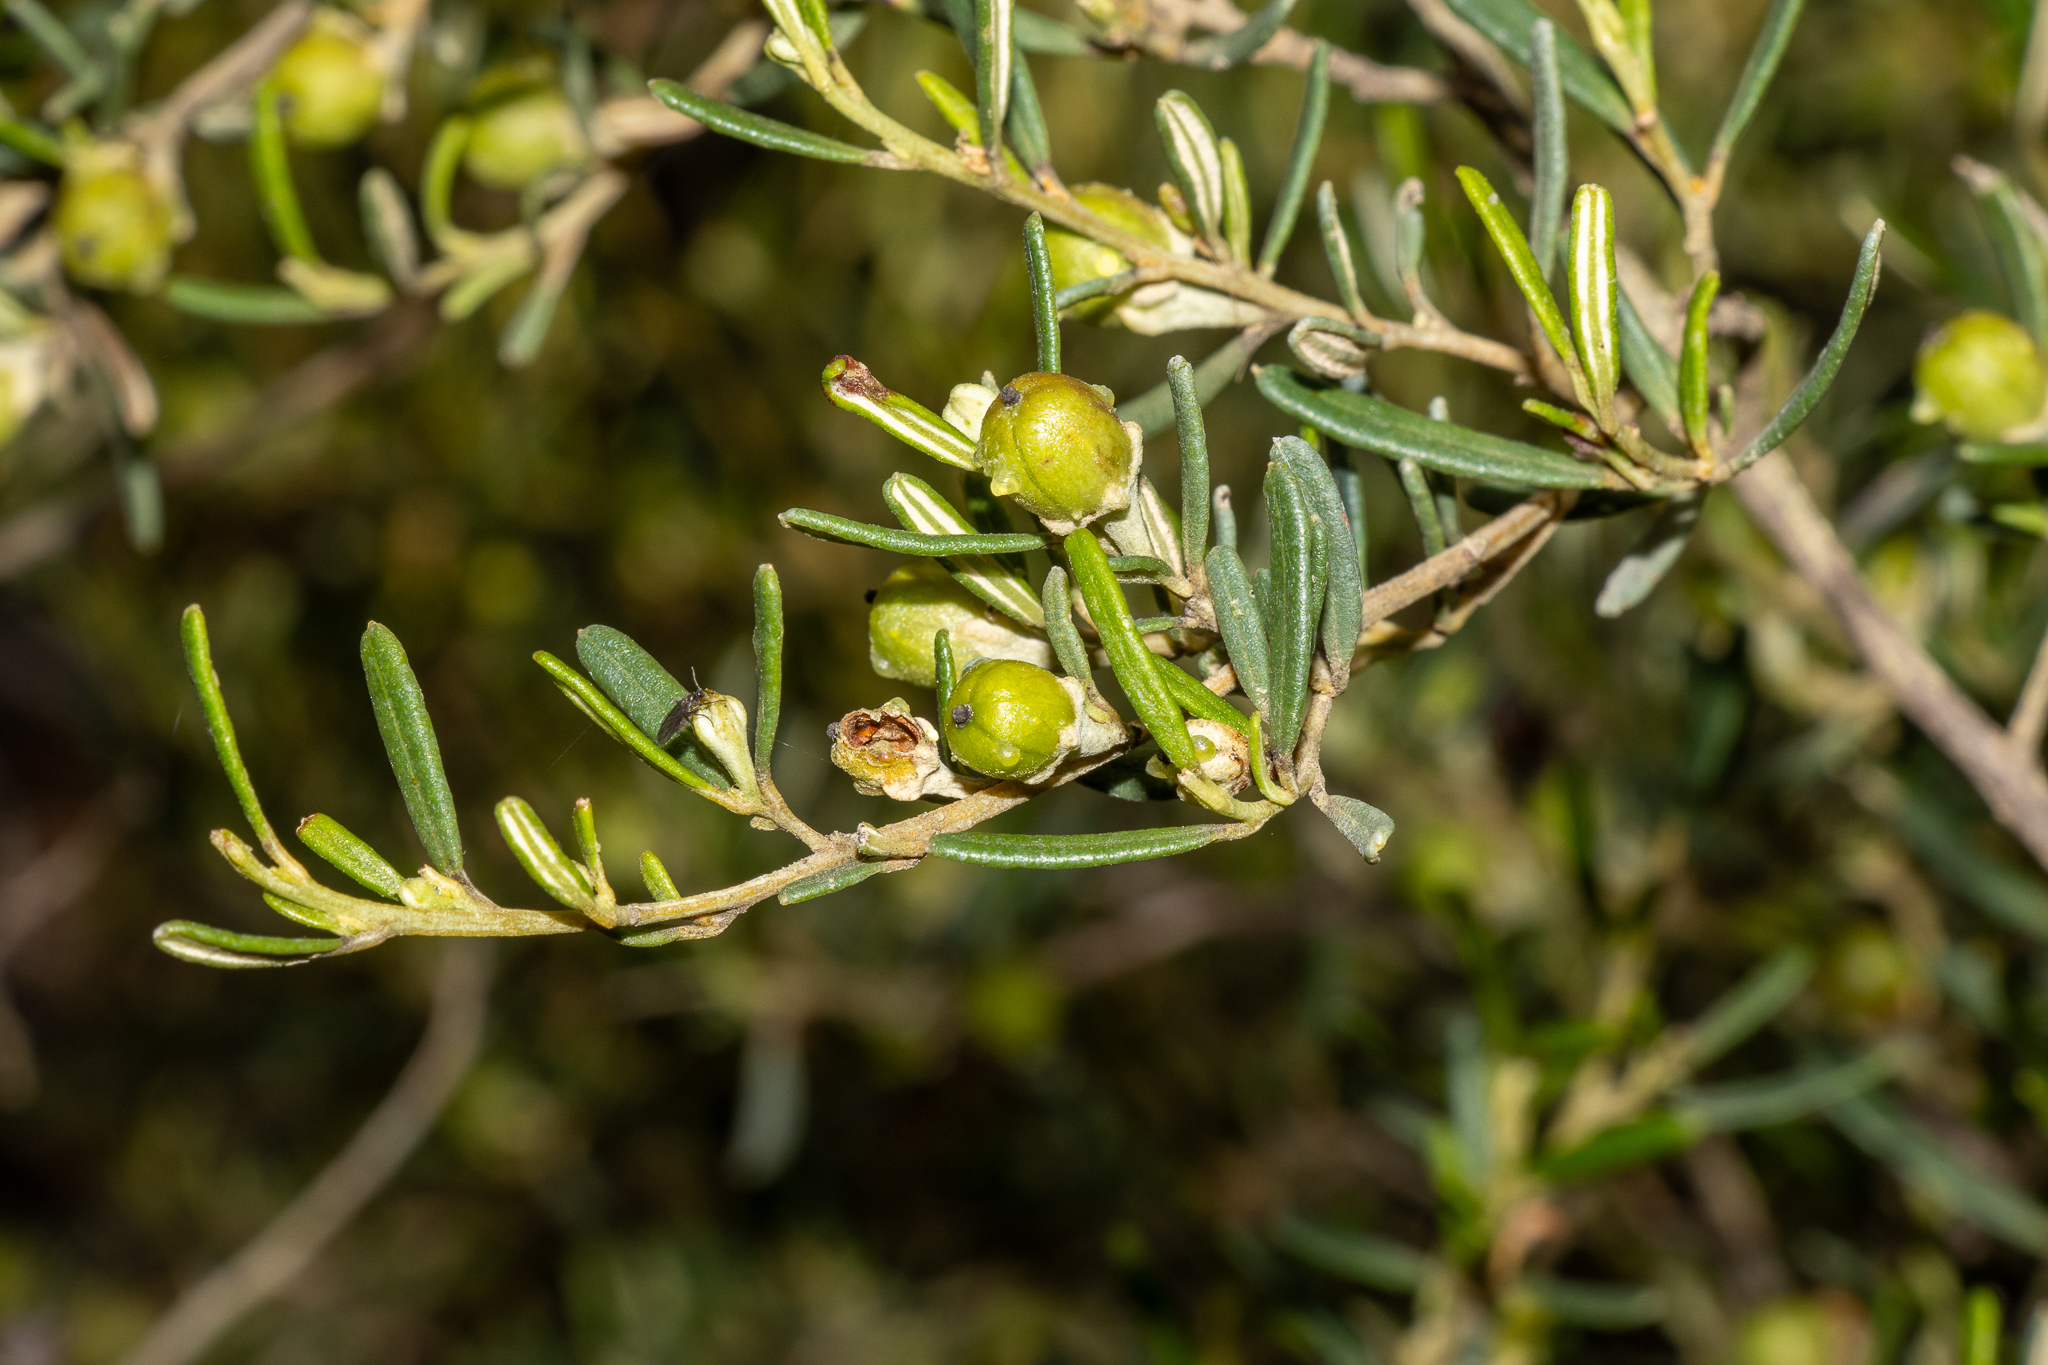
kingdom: Plantae
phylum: Tracheophyta
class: Magnoliopsida
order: Malpighiales
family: Euphorbiaceae
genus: Beyeria
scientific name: Beyeria lechenaultii
